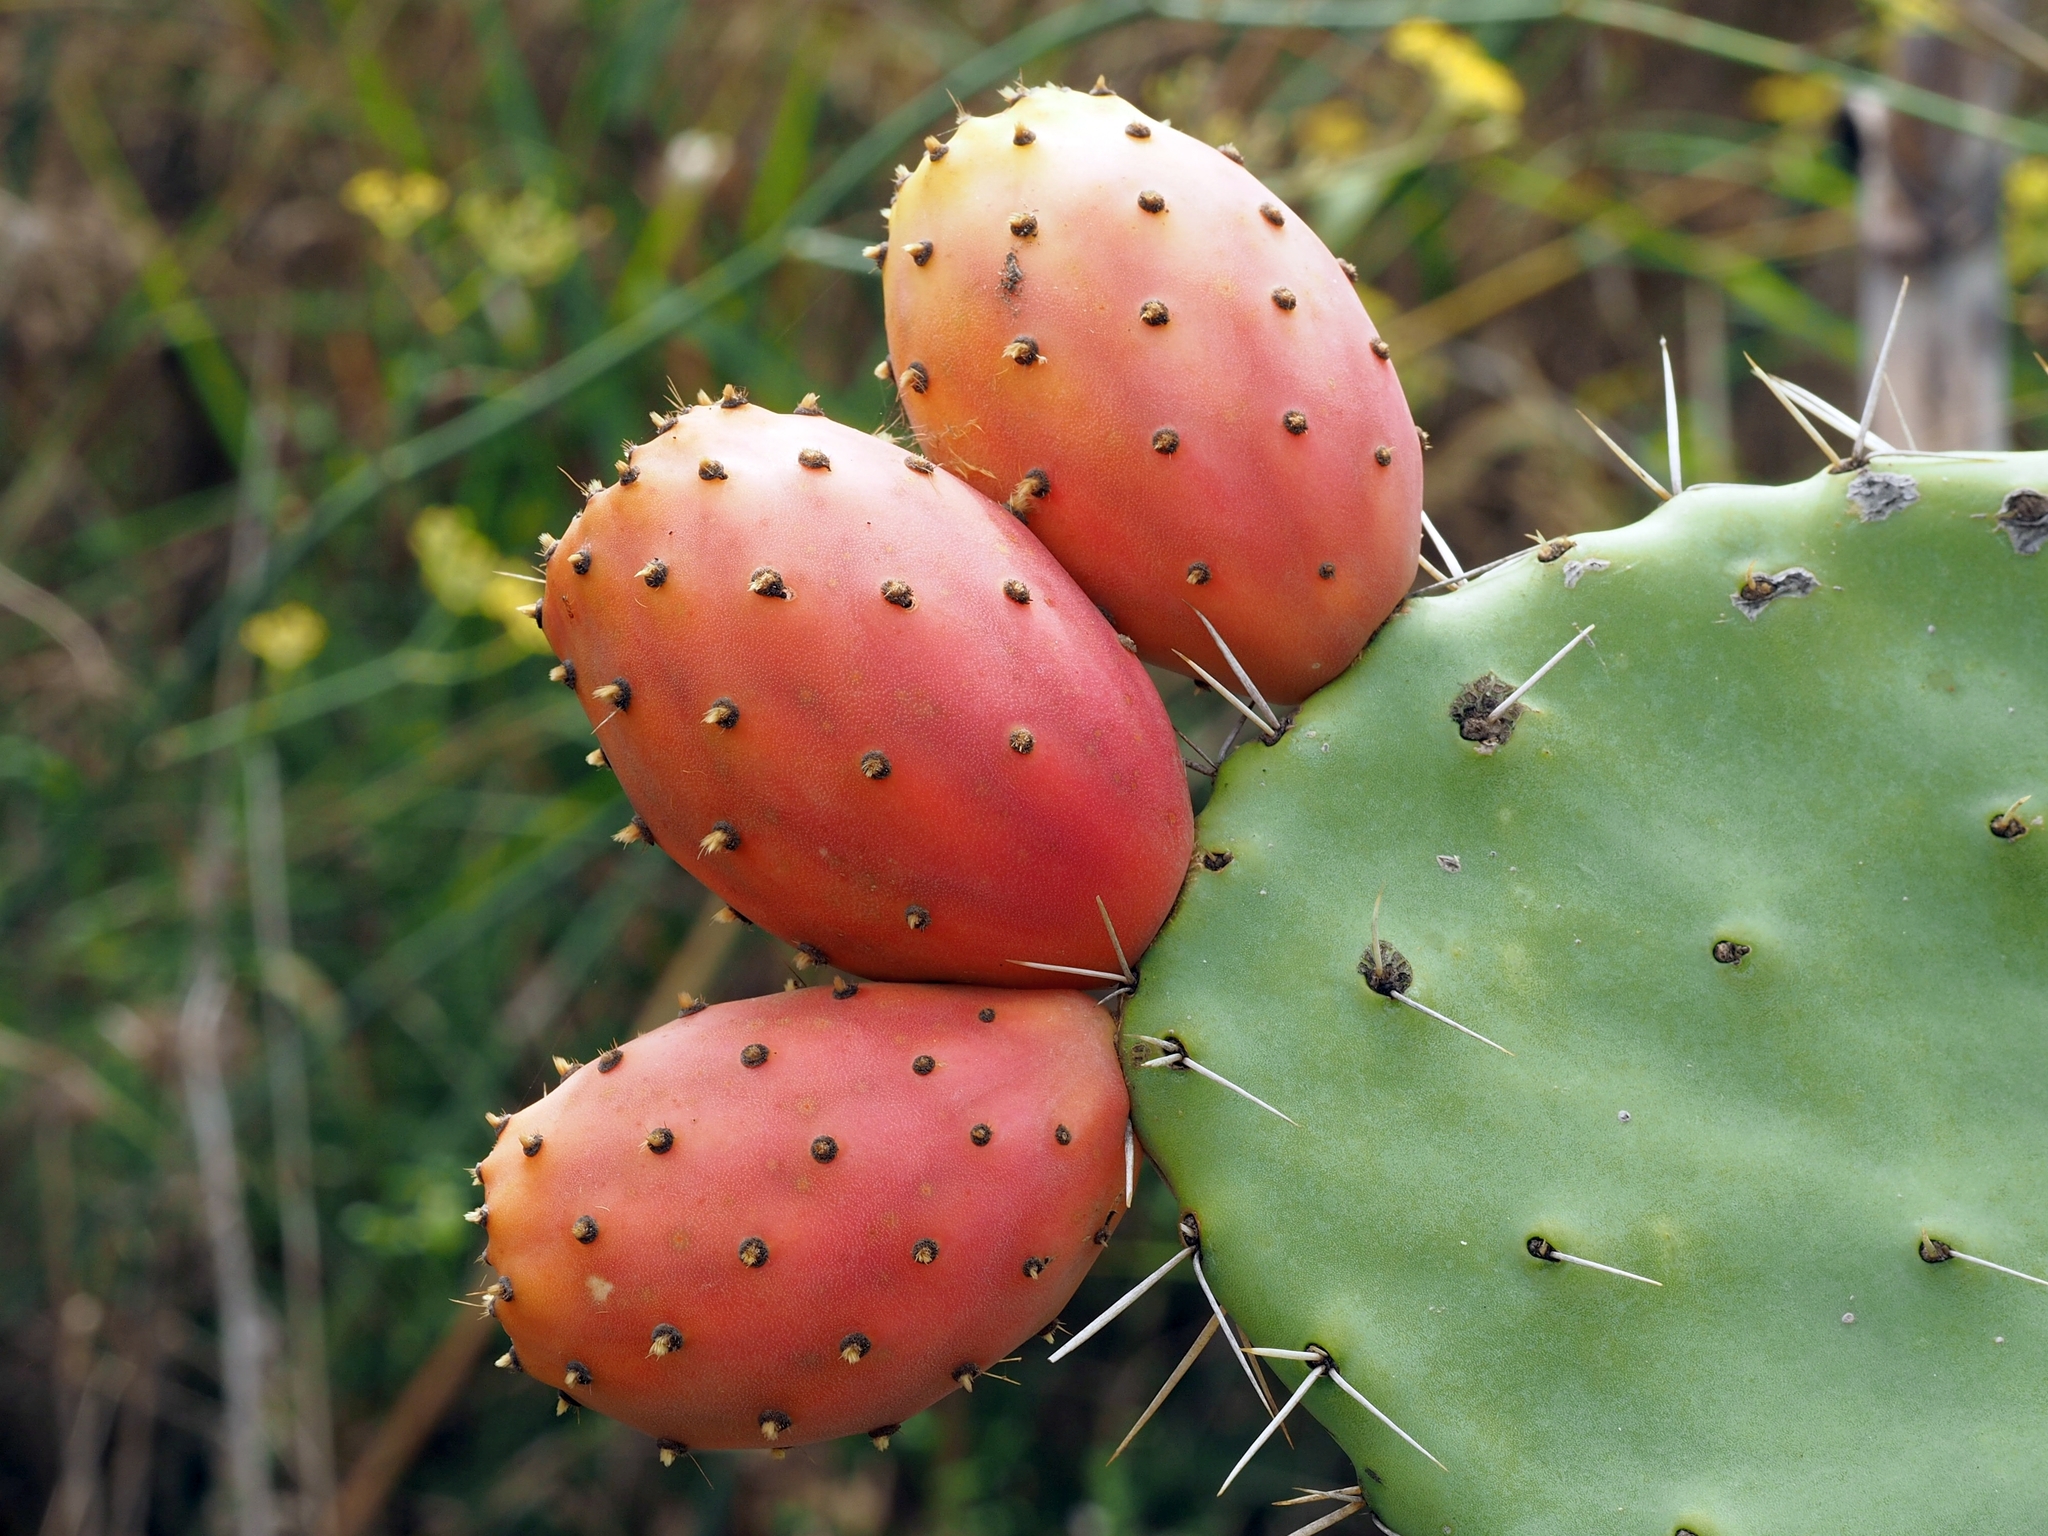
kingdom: Plantae
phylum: Tracheophyta
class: Magnoliopsida
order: Caryophyllales
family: Cactaceae
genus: Opuntia
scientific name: Opuntia ficus-indica
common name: Barbary fig
